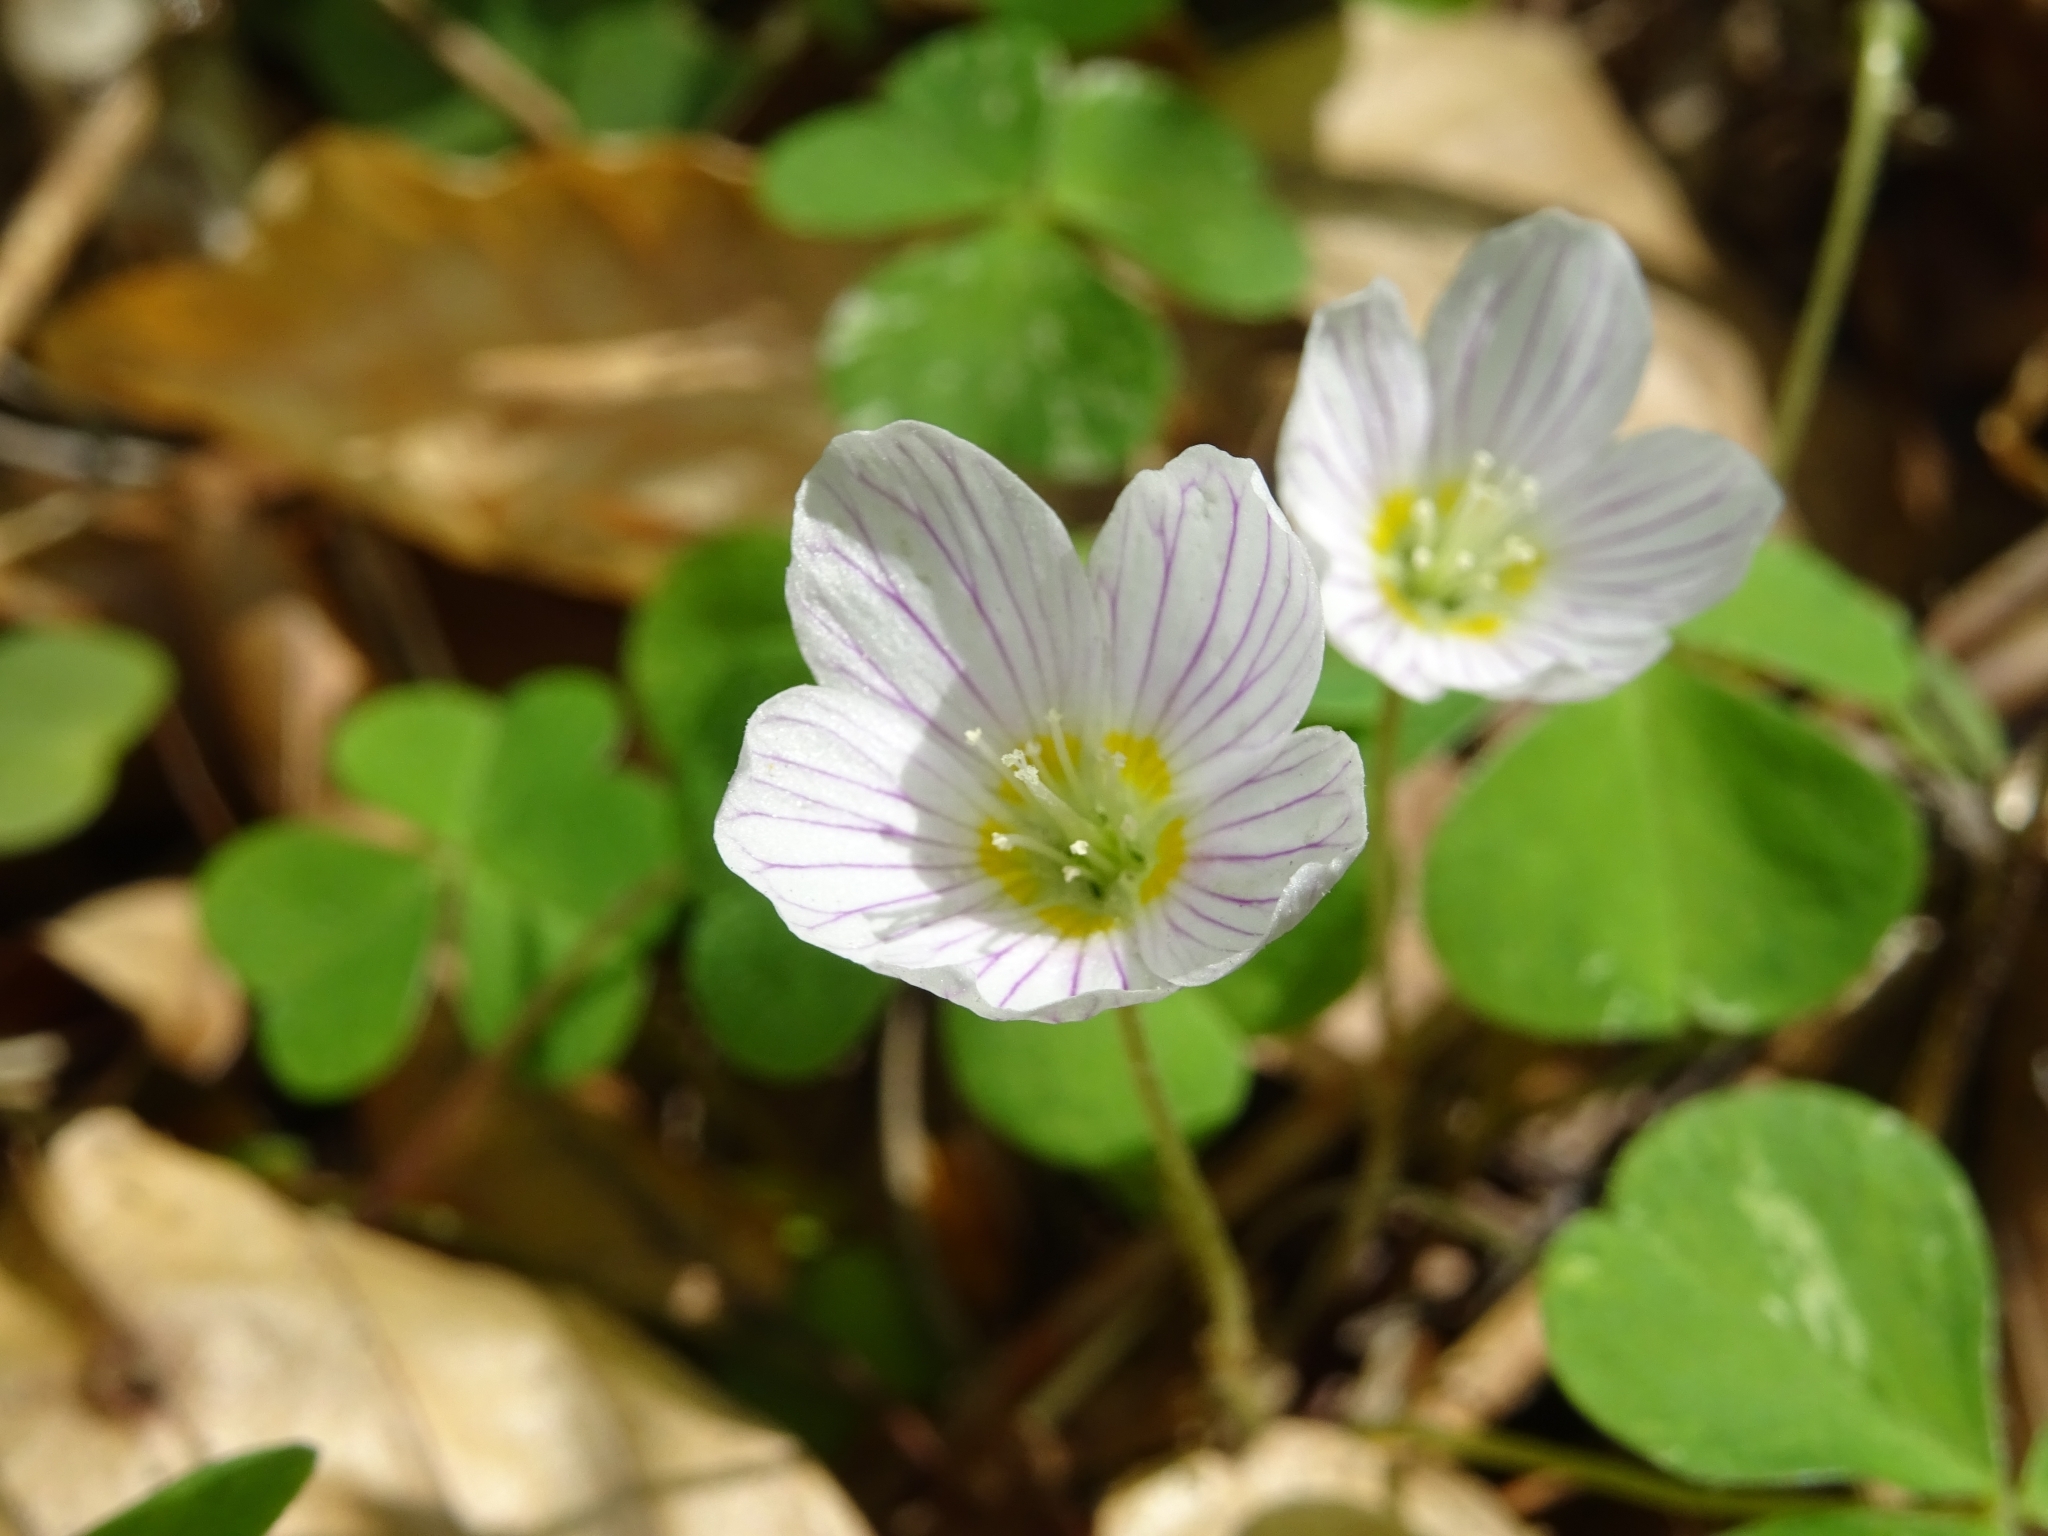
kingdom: Plantae
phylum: Tracheophyta
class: Magnoliopsida
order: Oxalidales
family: Oxalidaceae
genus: Oxalis
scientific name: Oxalis acetosella
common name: Wood-sorrel
